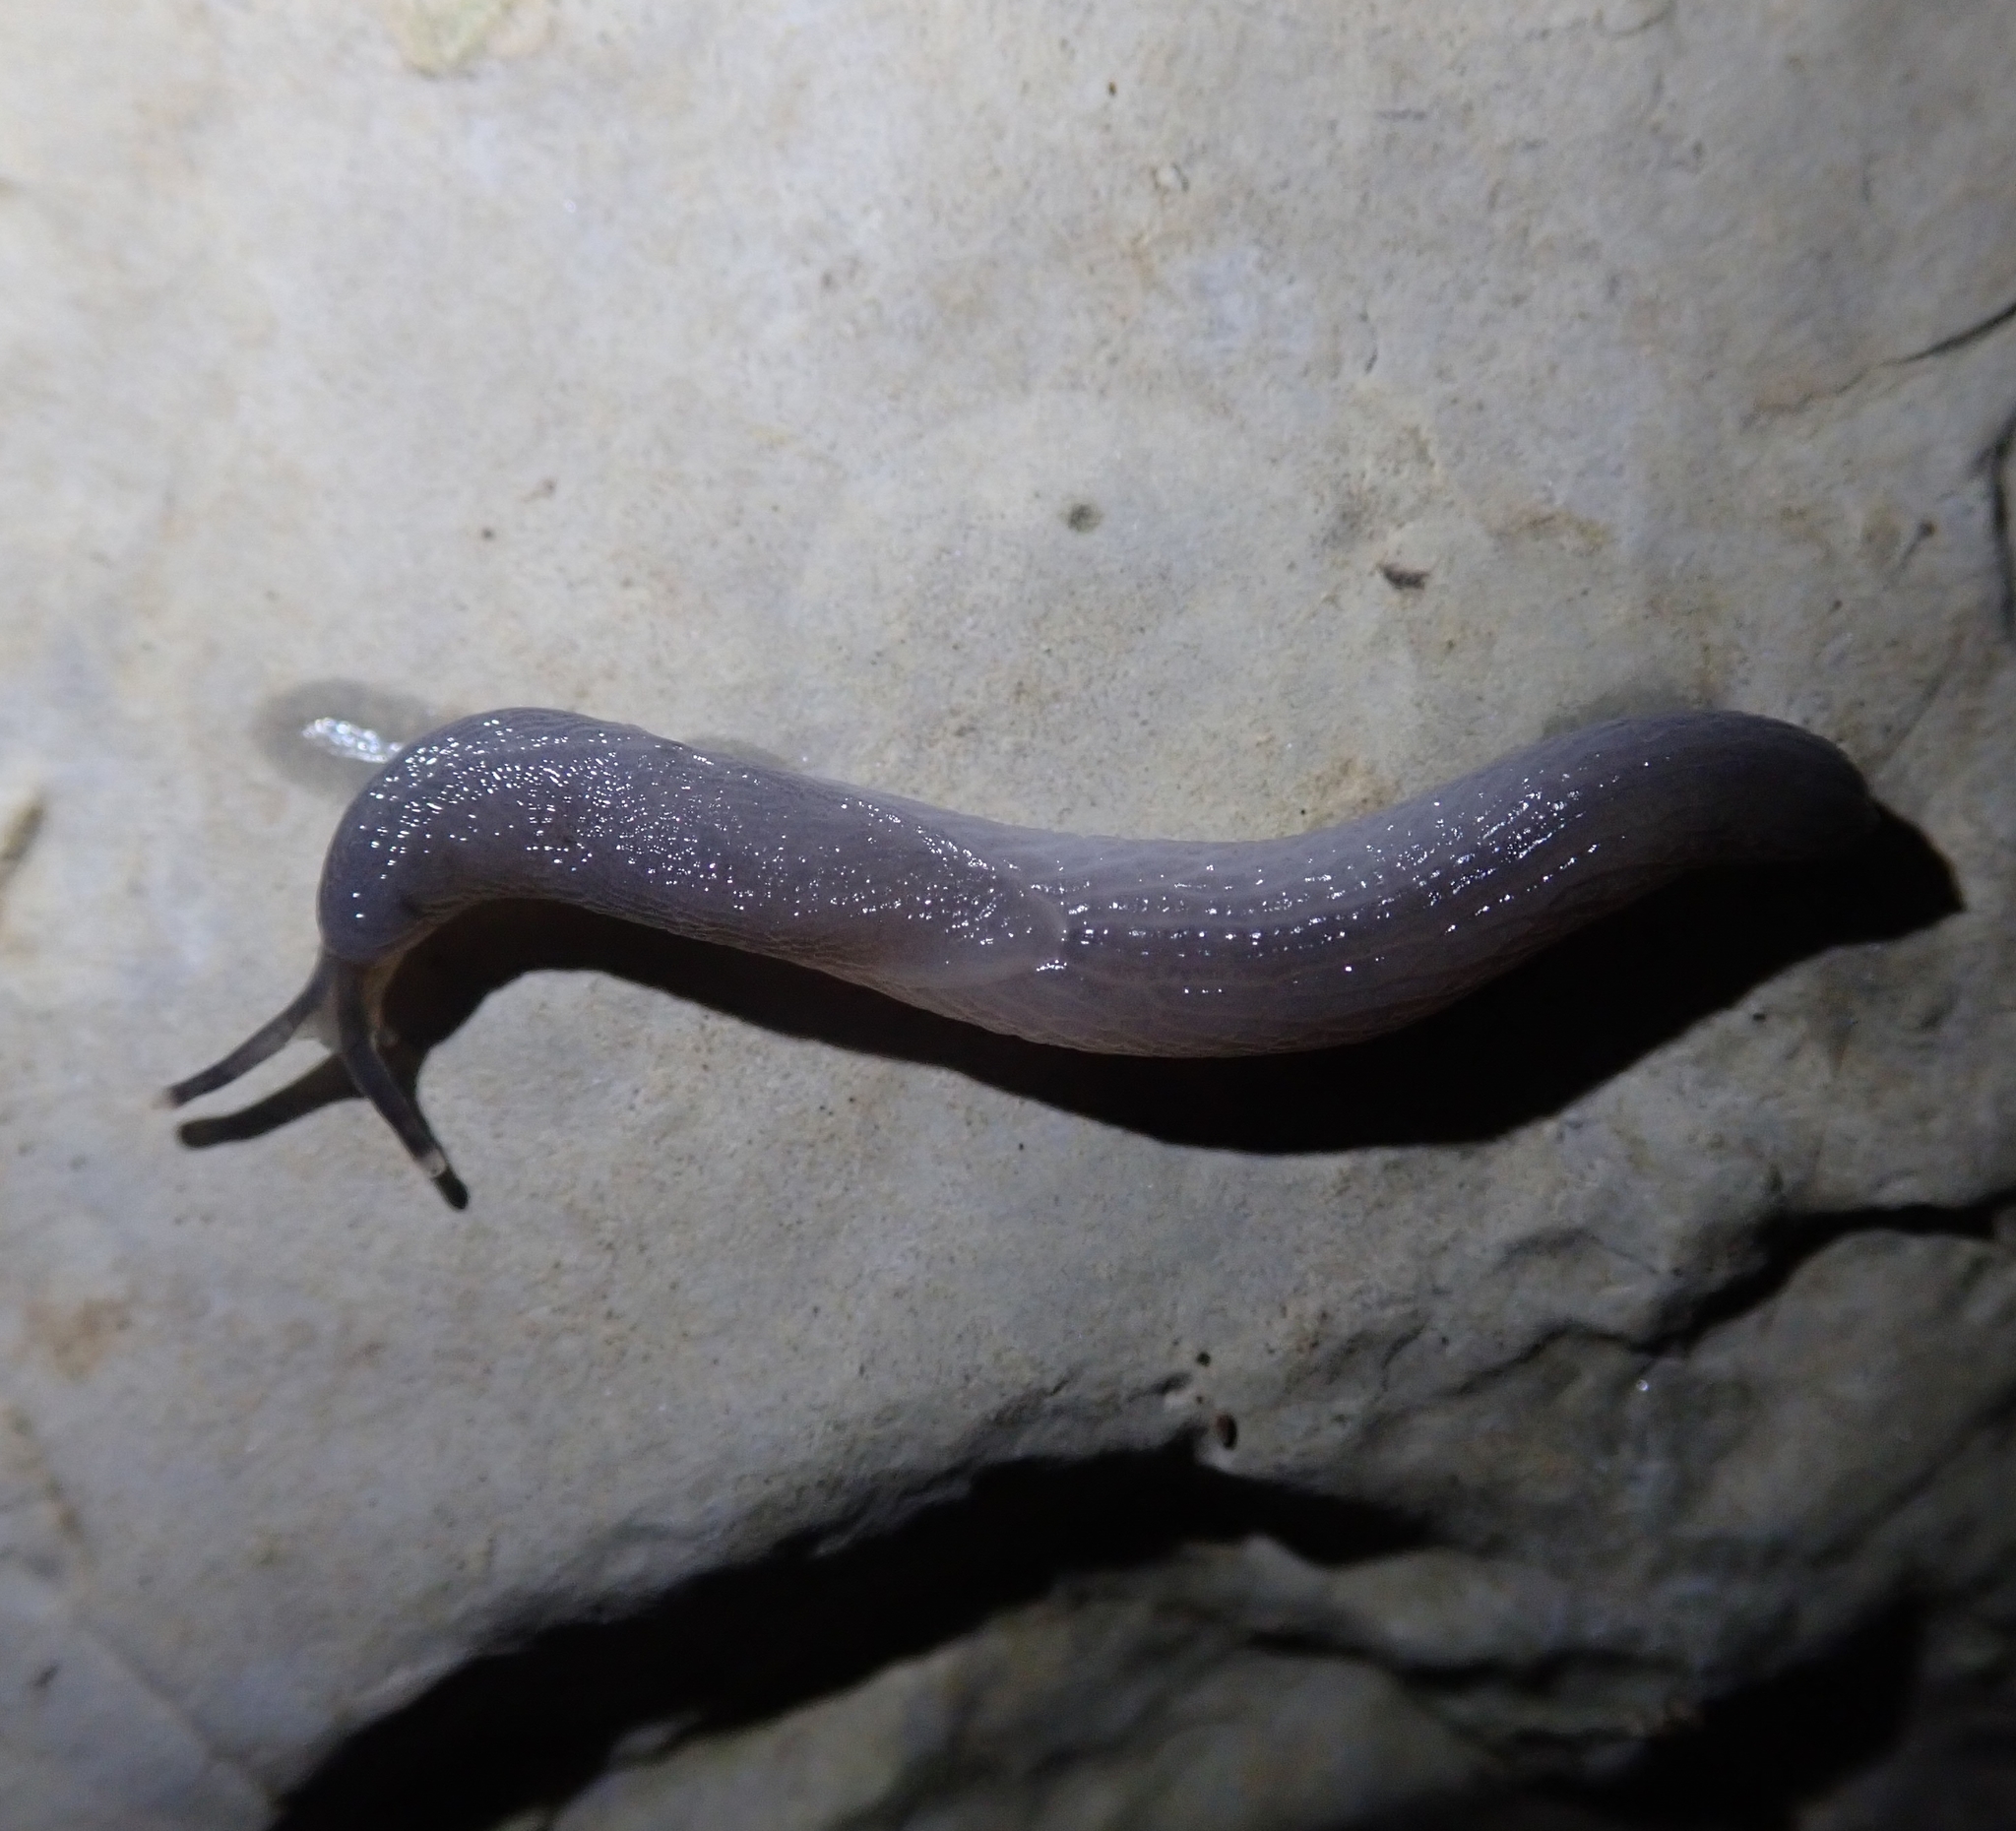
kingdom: Animalia
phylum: Mollusca
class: Gastropoda
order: Stylommatophora
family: Boettgerillidae
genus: Boettgerilla
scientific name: Boettgerilla pallens
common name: Worm slug
